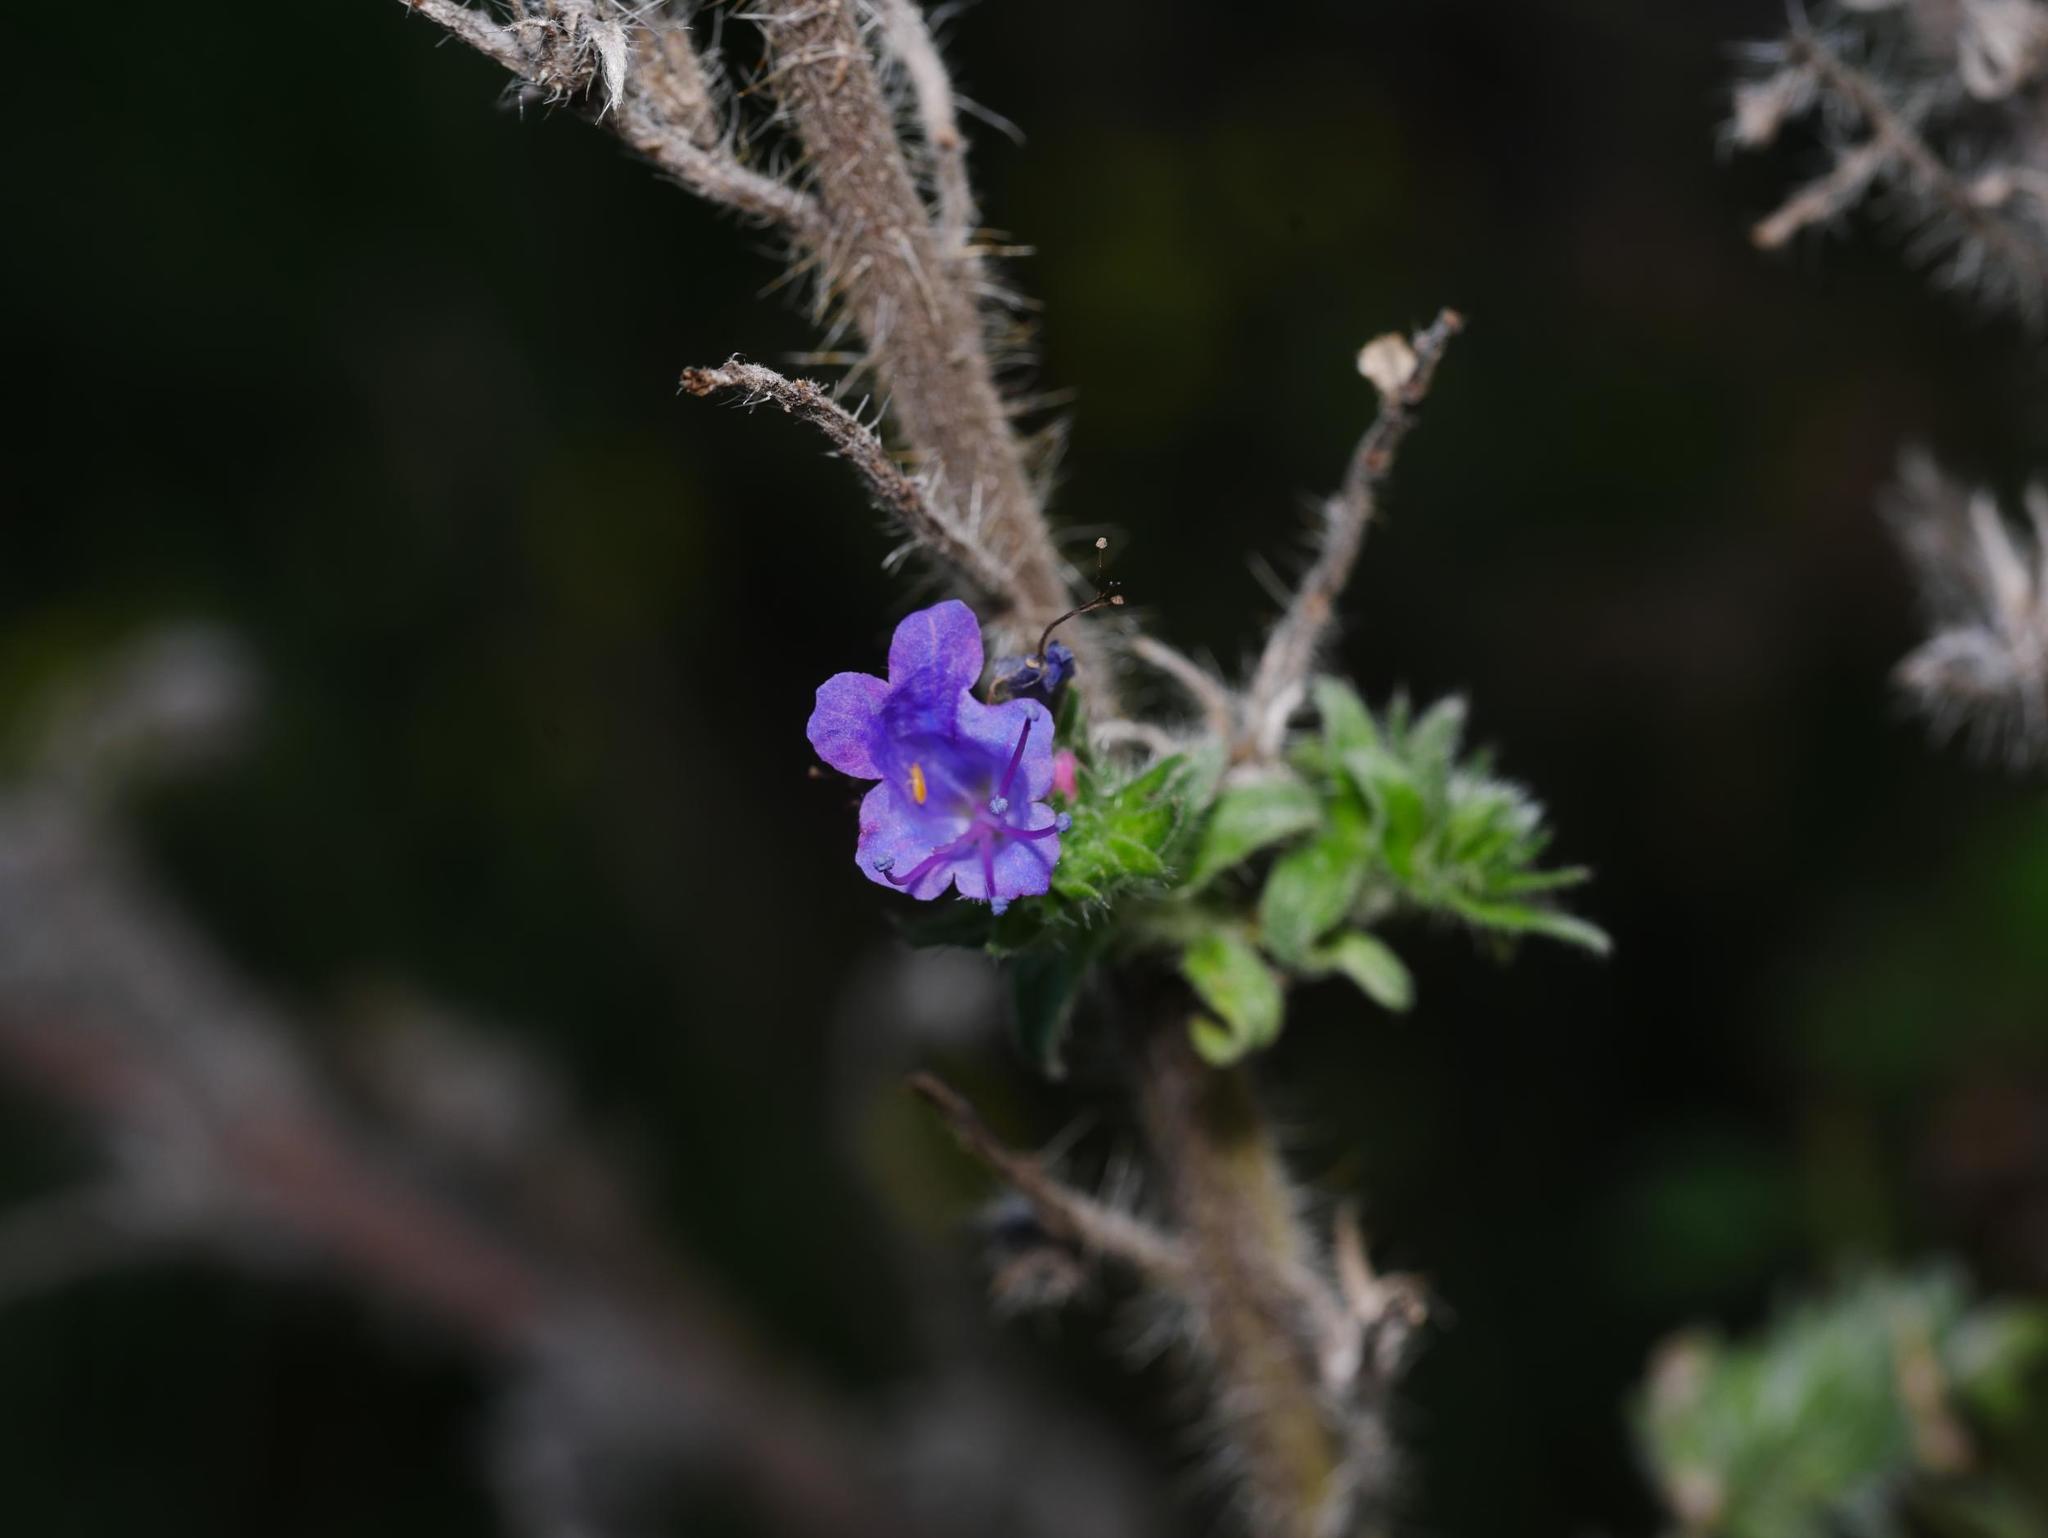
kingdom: Plantae
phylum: Tracheophyta
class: Magnoliopsida
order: Boraginales
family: Boraginaceae
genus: Echium
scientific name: Echium vulgare
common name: Common viper's bugloss
